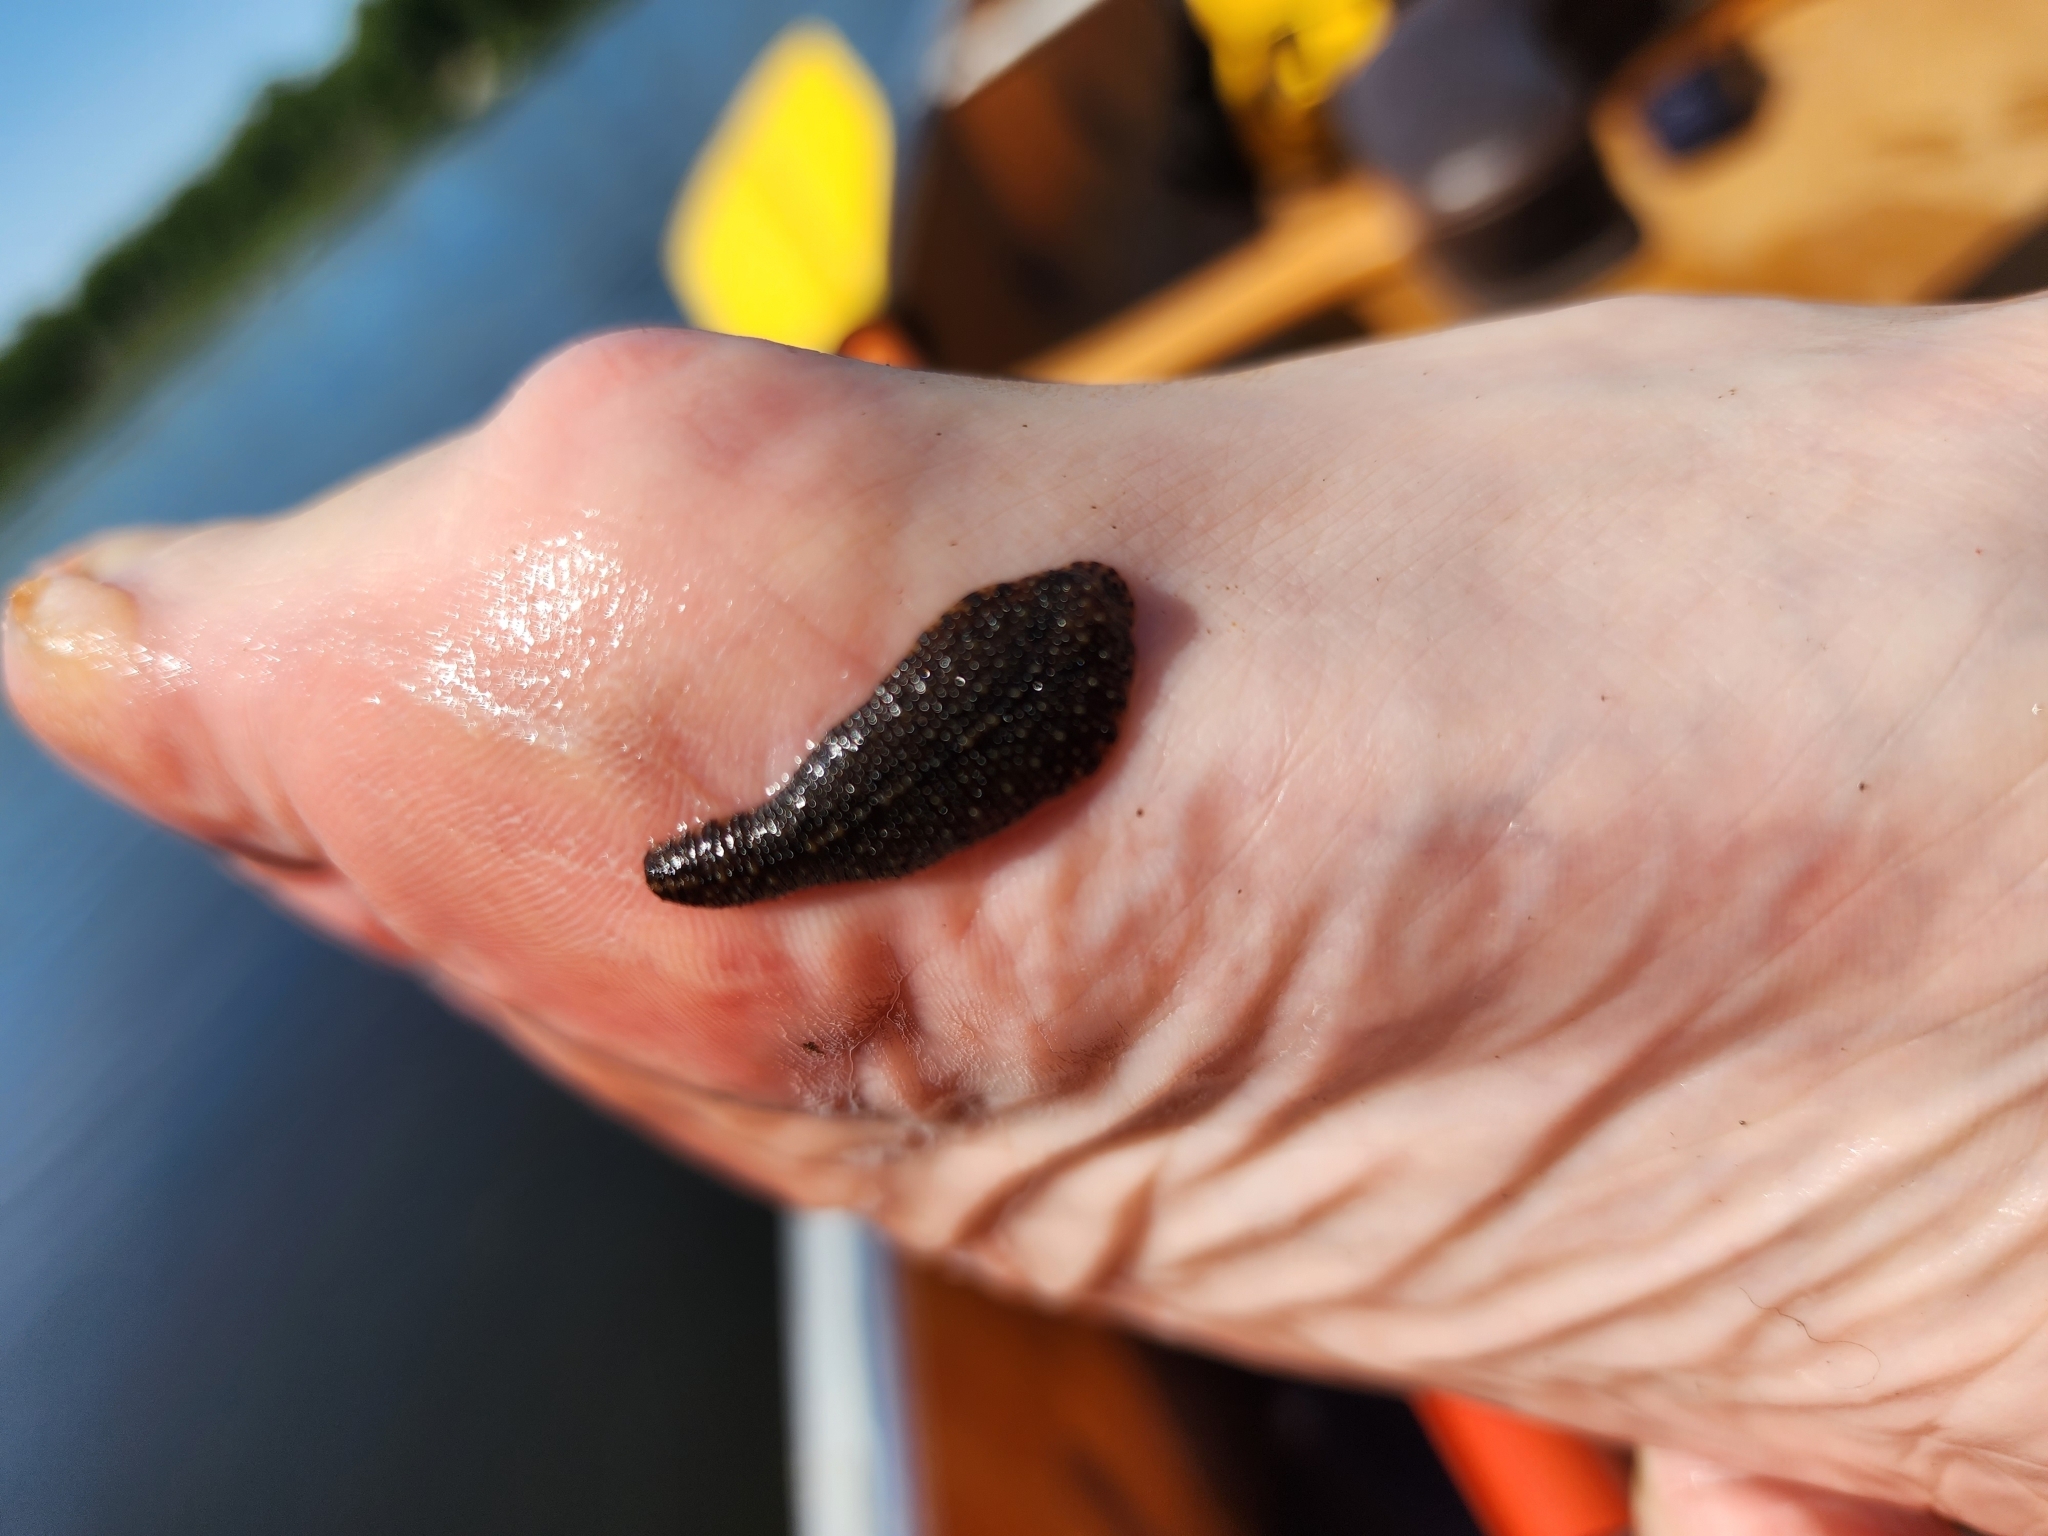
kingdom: Animalia
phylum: Annelida
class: Clitellata
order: Rhynchobdellida
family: Glossiphoniidae
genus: Placobdella
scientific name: Placobdella rugosa
